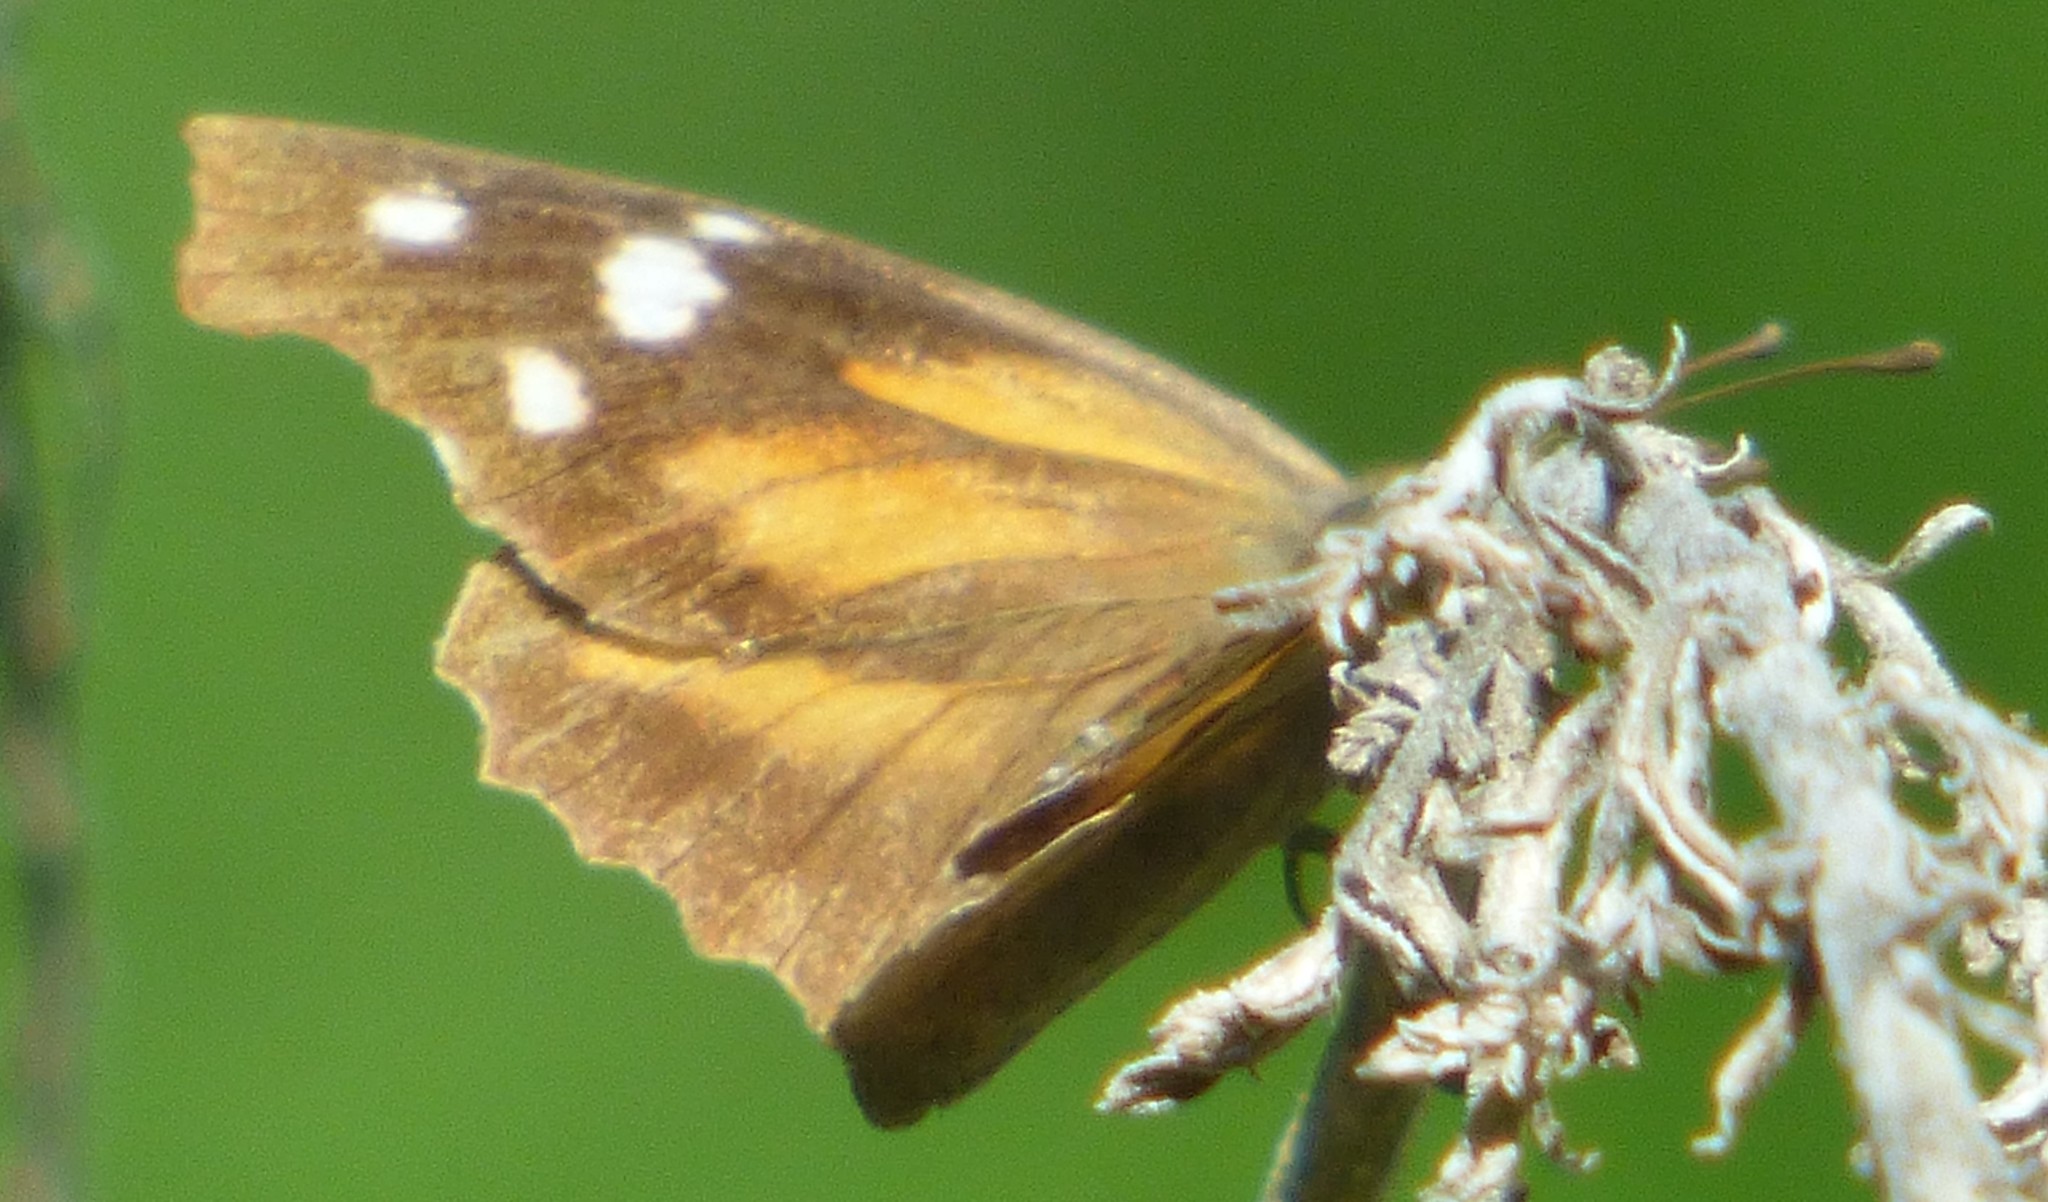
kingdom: Animalia
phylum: Arthropoda
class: Insecta
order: Lepidoptera
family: Nymphalidae
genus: Libytheana
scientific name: Libytheana carinenta
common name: American snout
